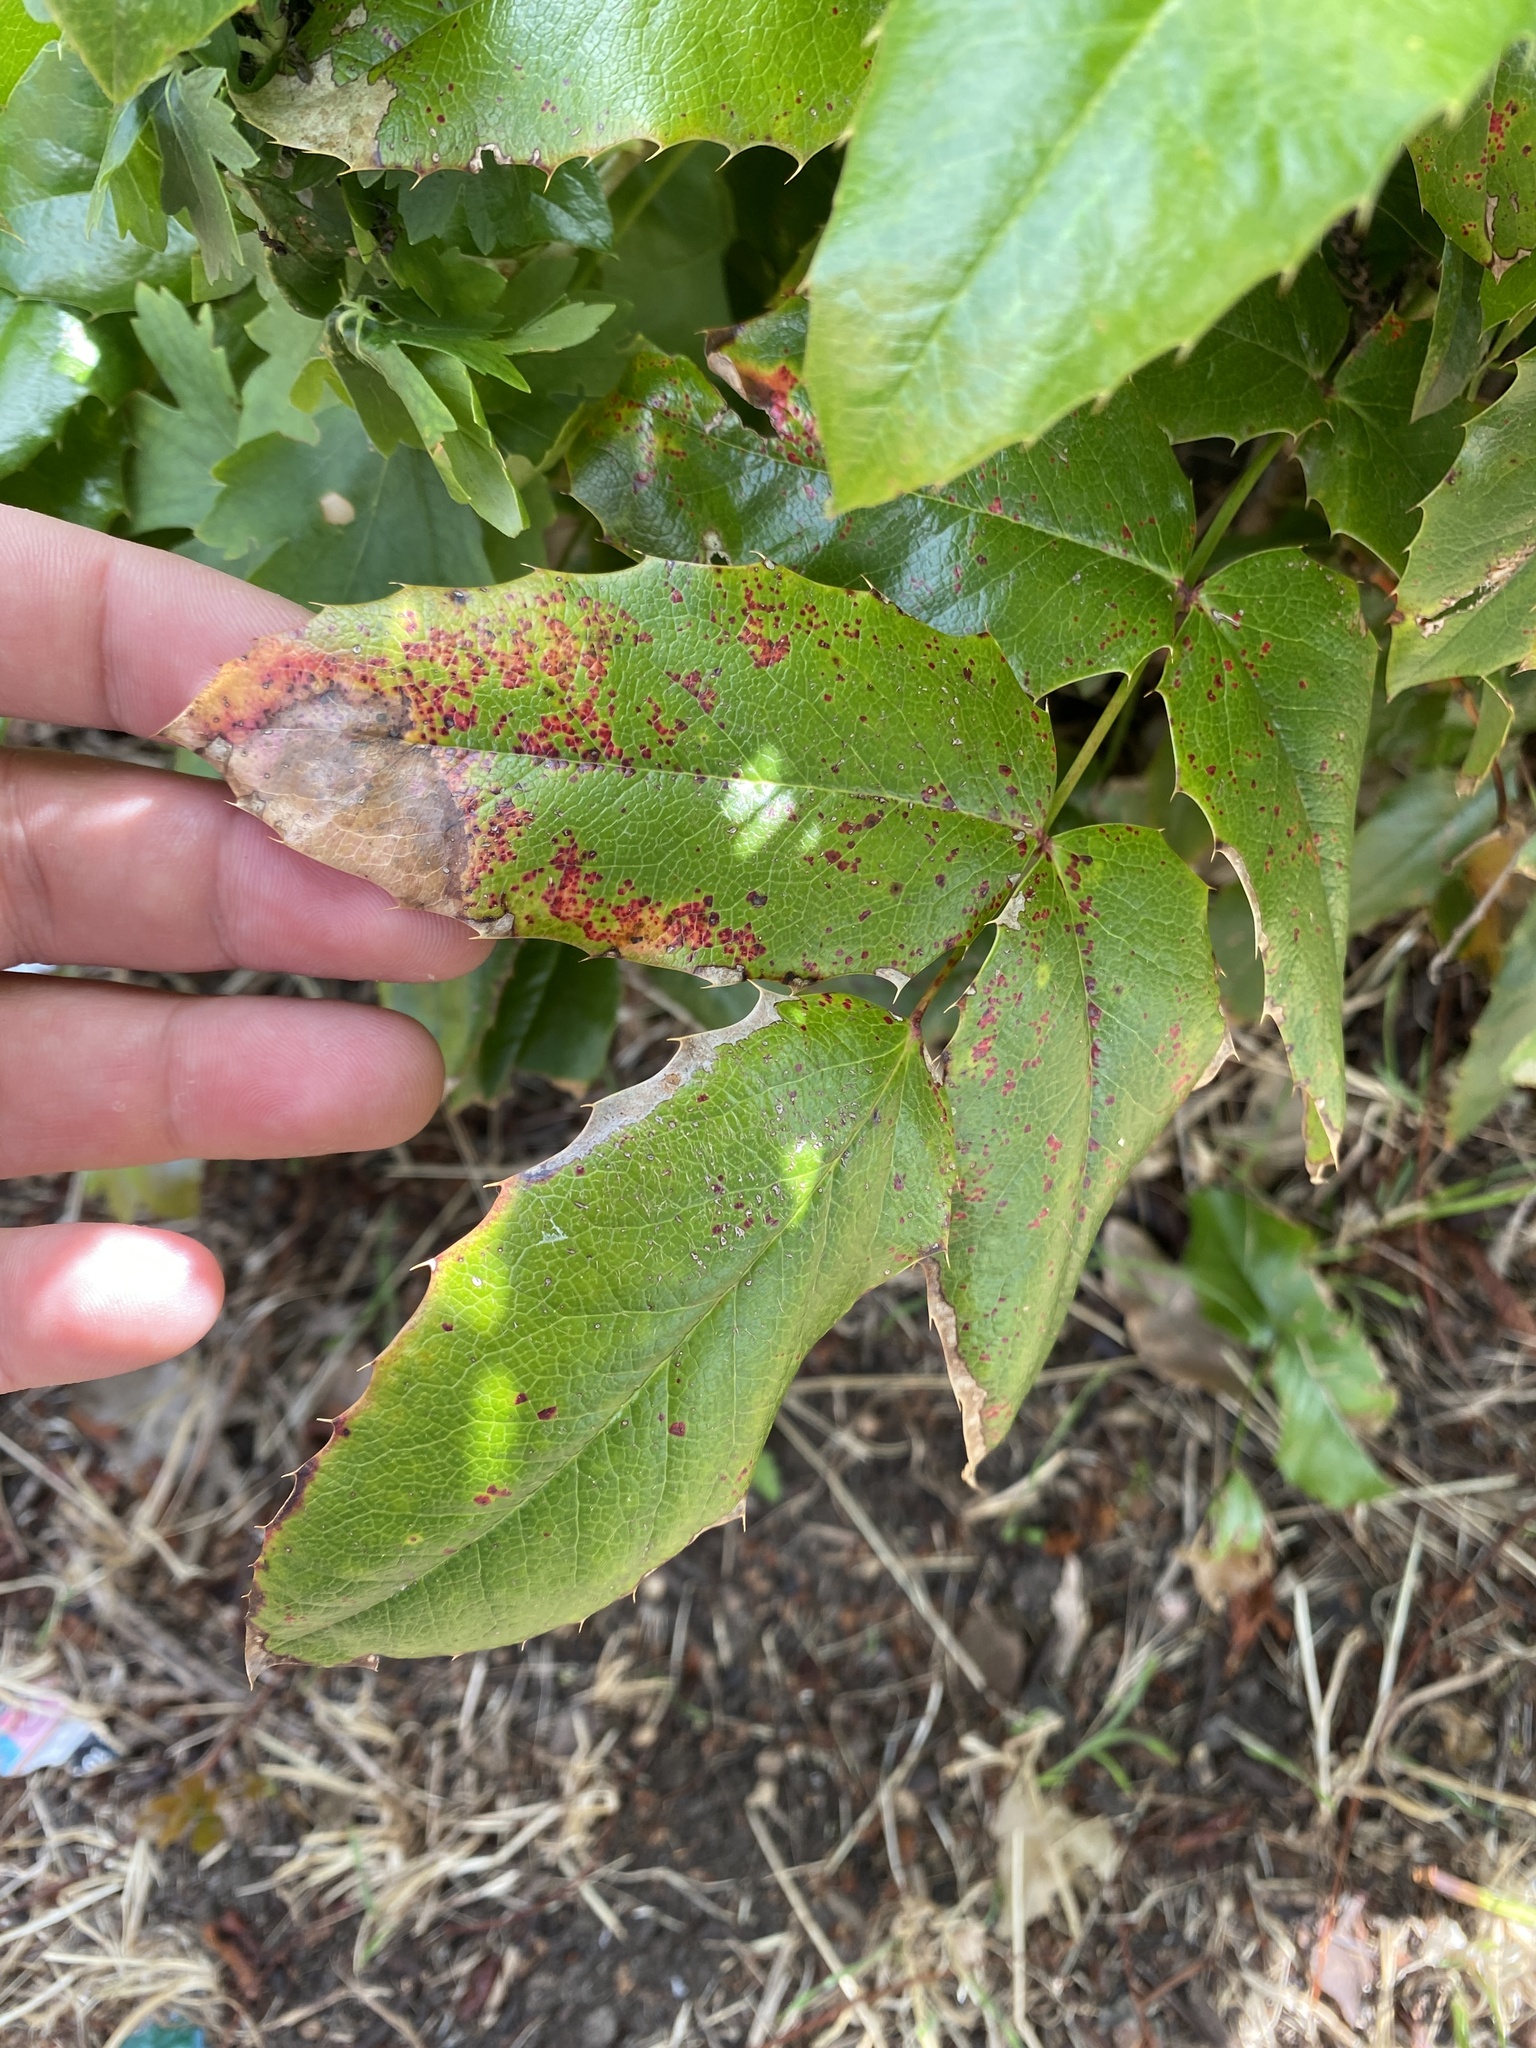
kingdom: Plantae
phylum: Tracheophyta
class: Magnoliopsida
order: Ranunculales
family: Berberidaceae
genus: Mahonia
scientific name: Mahonia aquifolium
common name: Oregon-grape
